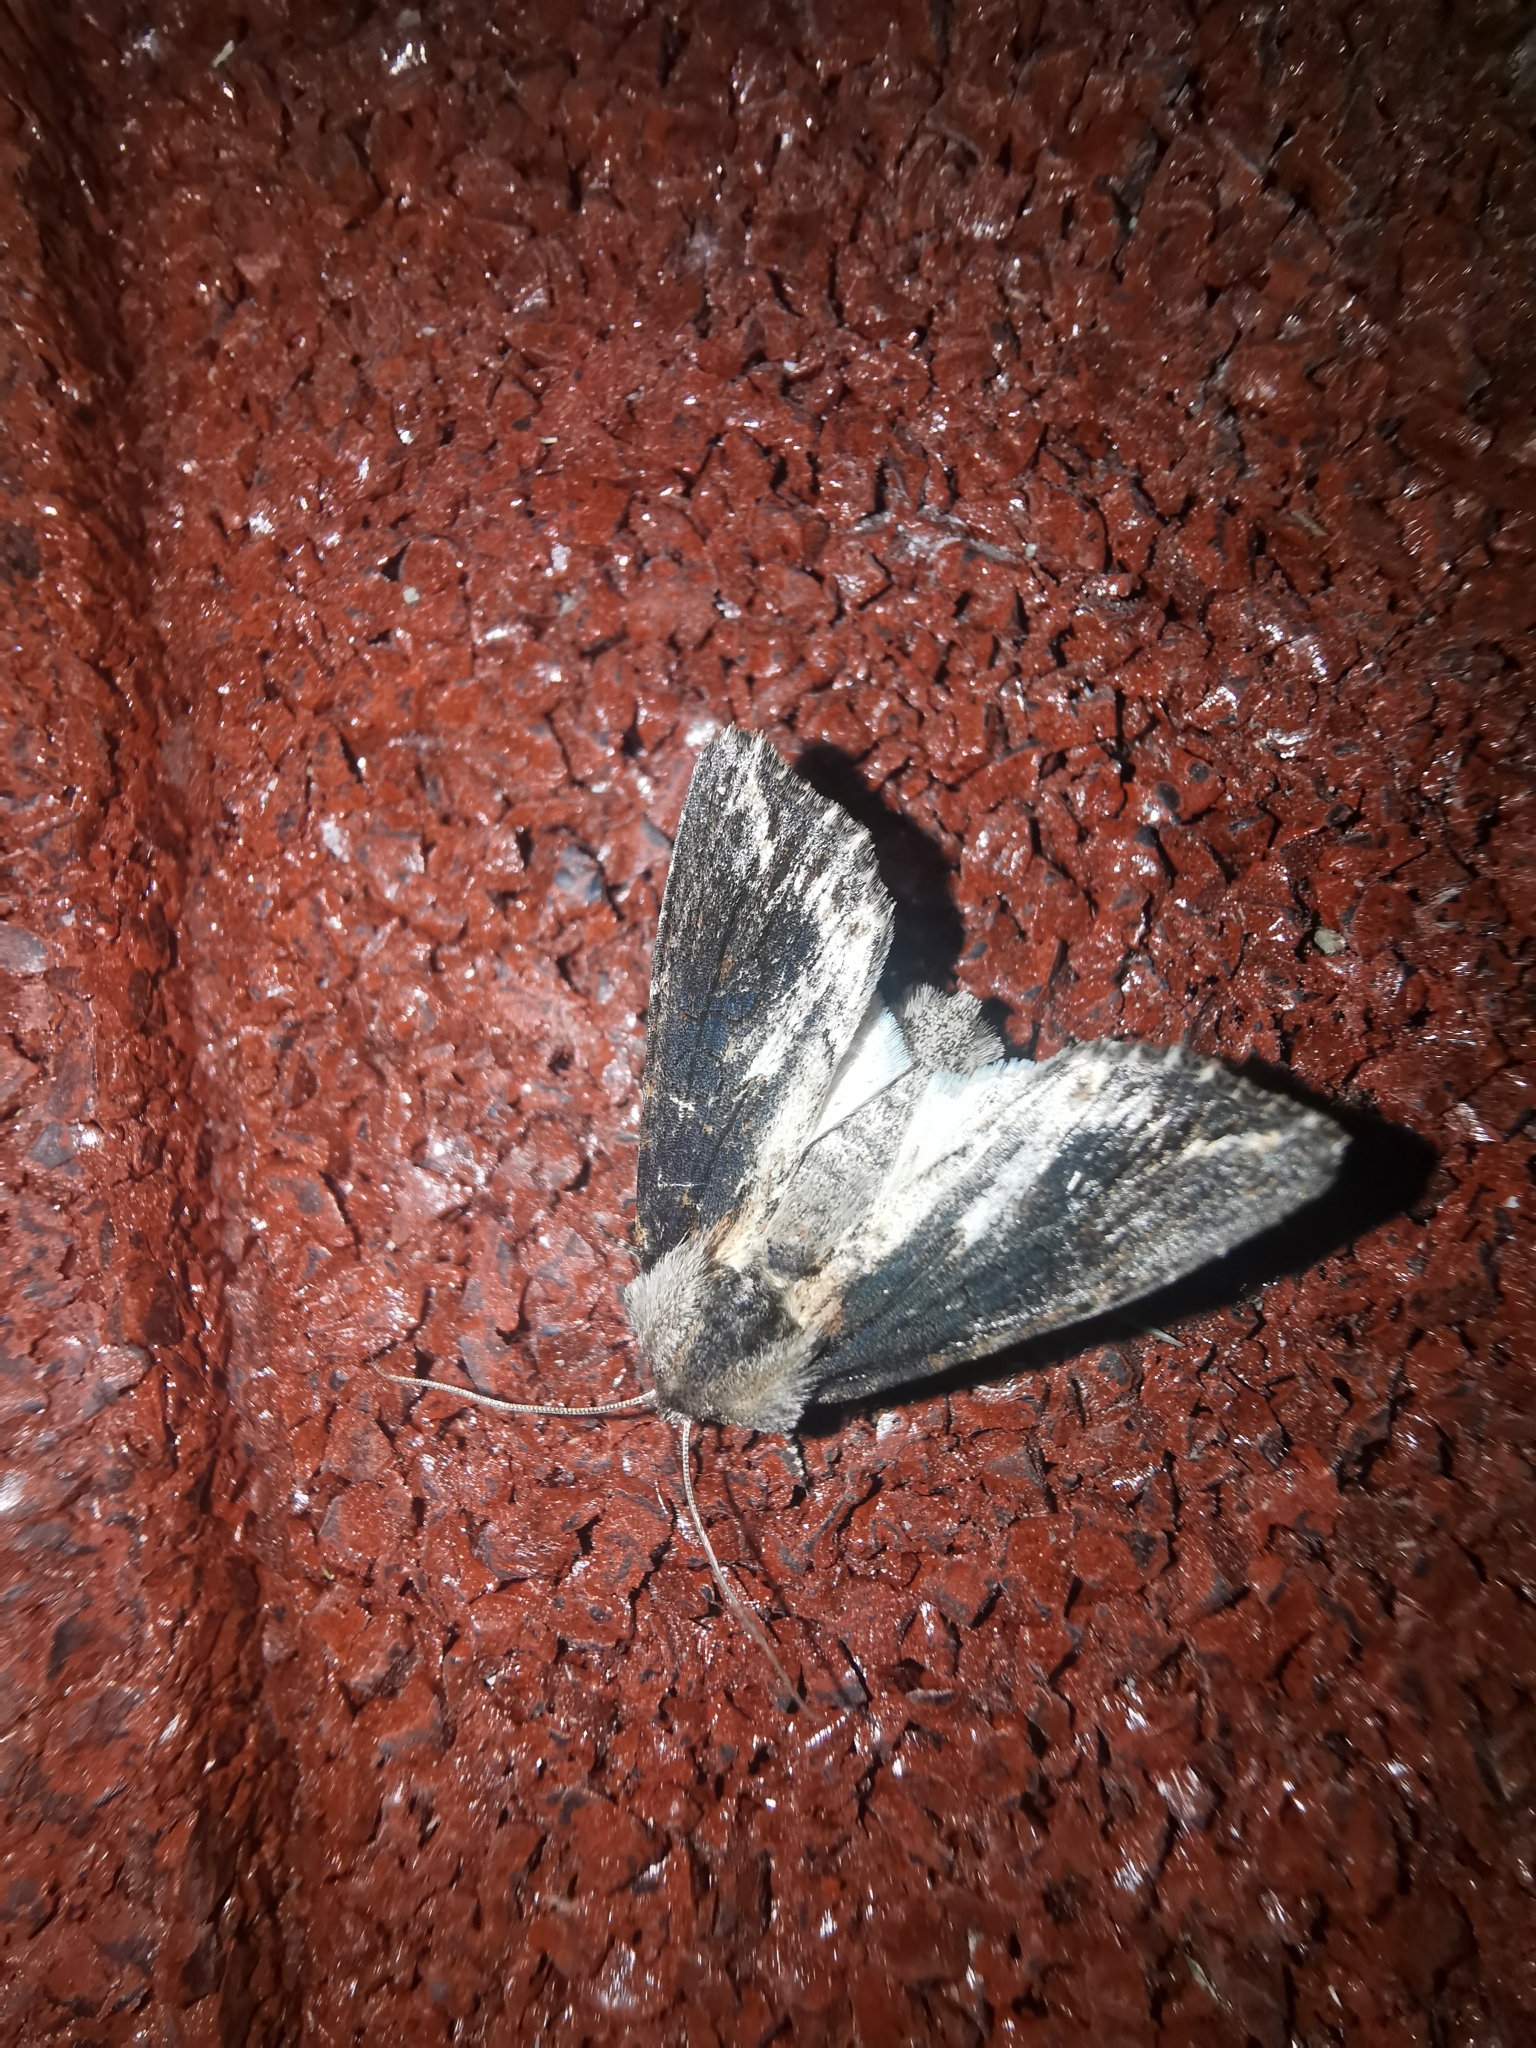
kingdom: Animalia
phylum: Arthropoda
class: Insecta
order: Lepidoptera
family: Noctuidae
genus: Egira
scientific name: Egira conspicillaris
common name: Silver cloud
